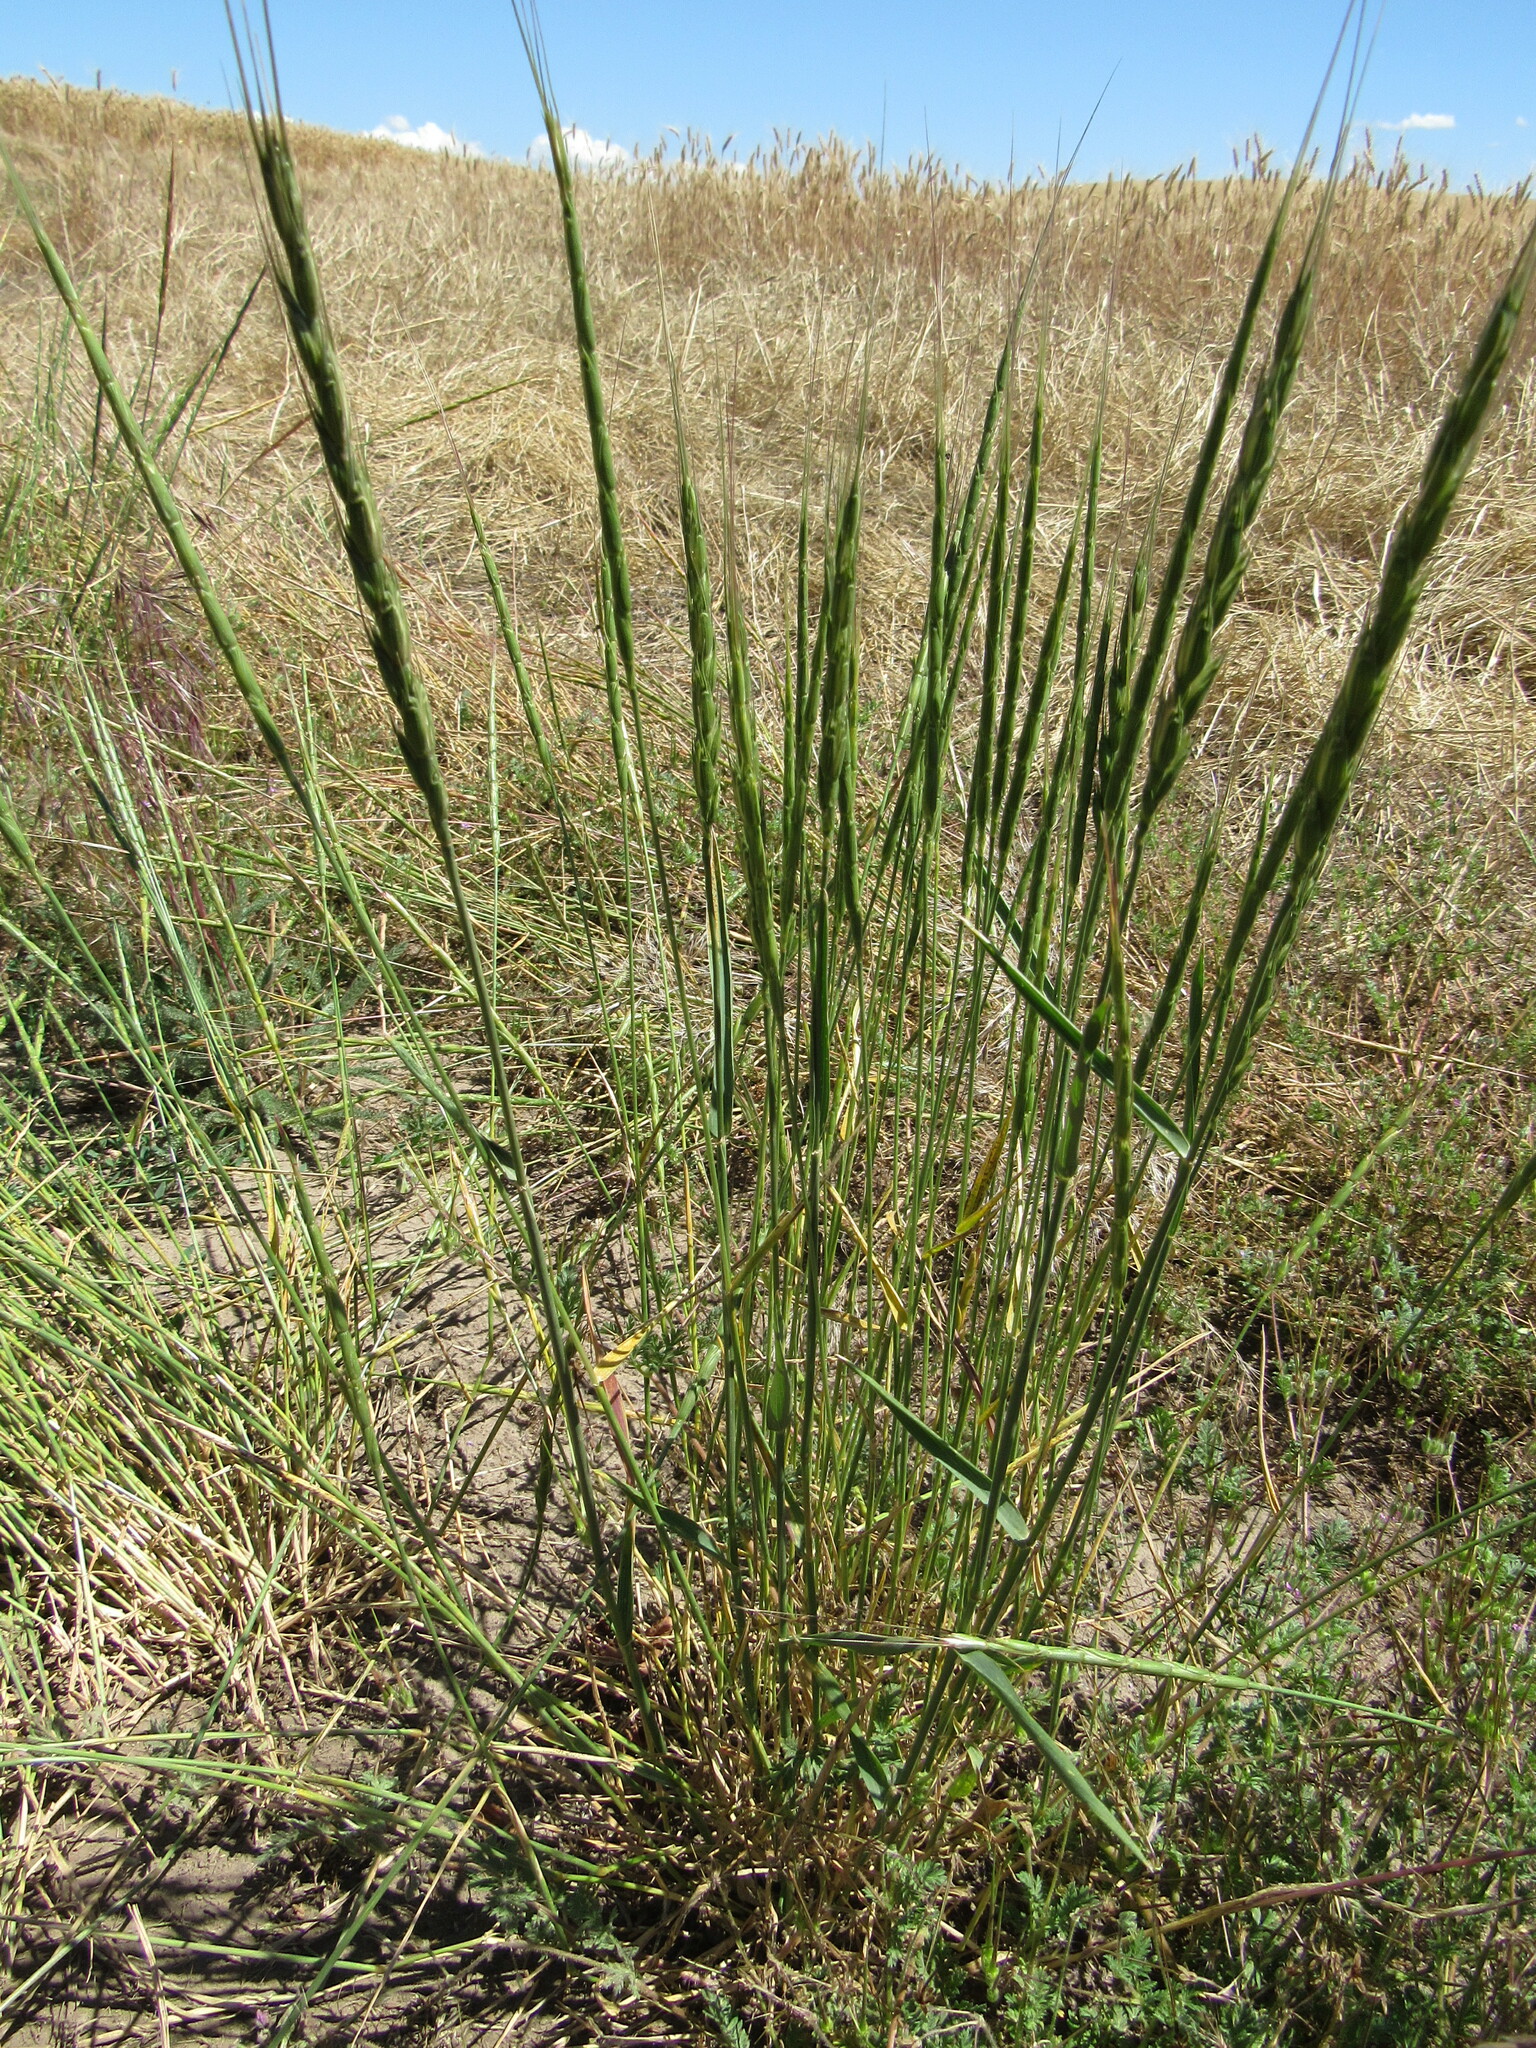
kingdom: Plantae
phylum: Tracheophyta
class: Liliopsida
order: Poales
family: Poaceae
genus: Aegilops
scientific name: Aegilops cylindrica
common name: Jointed goatgrass
